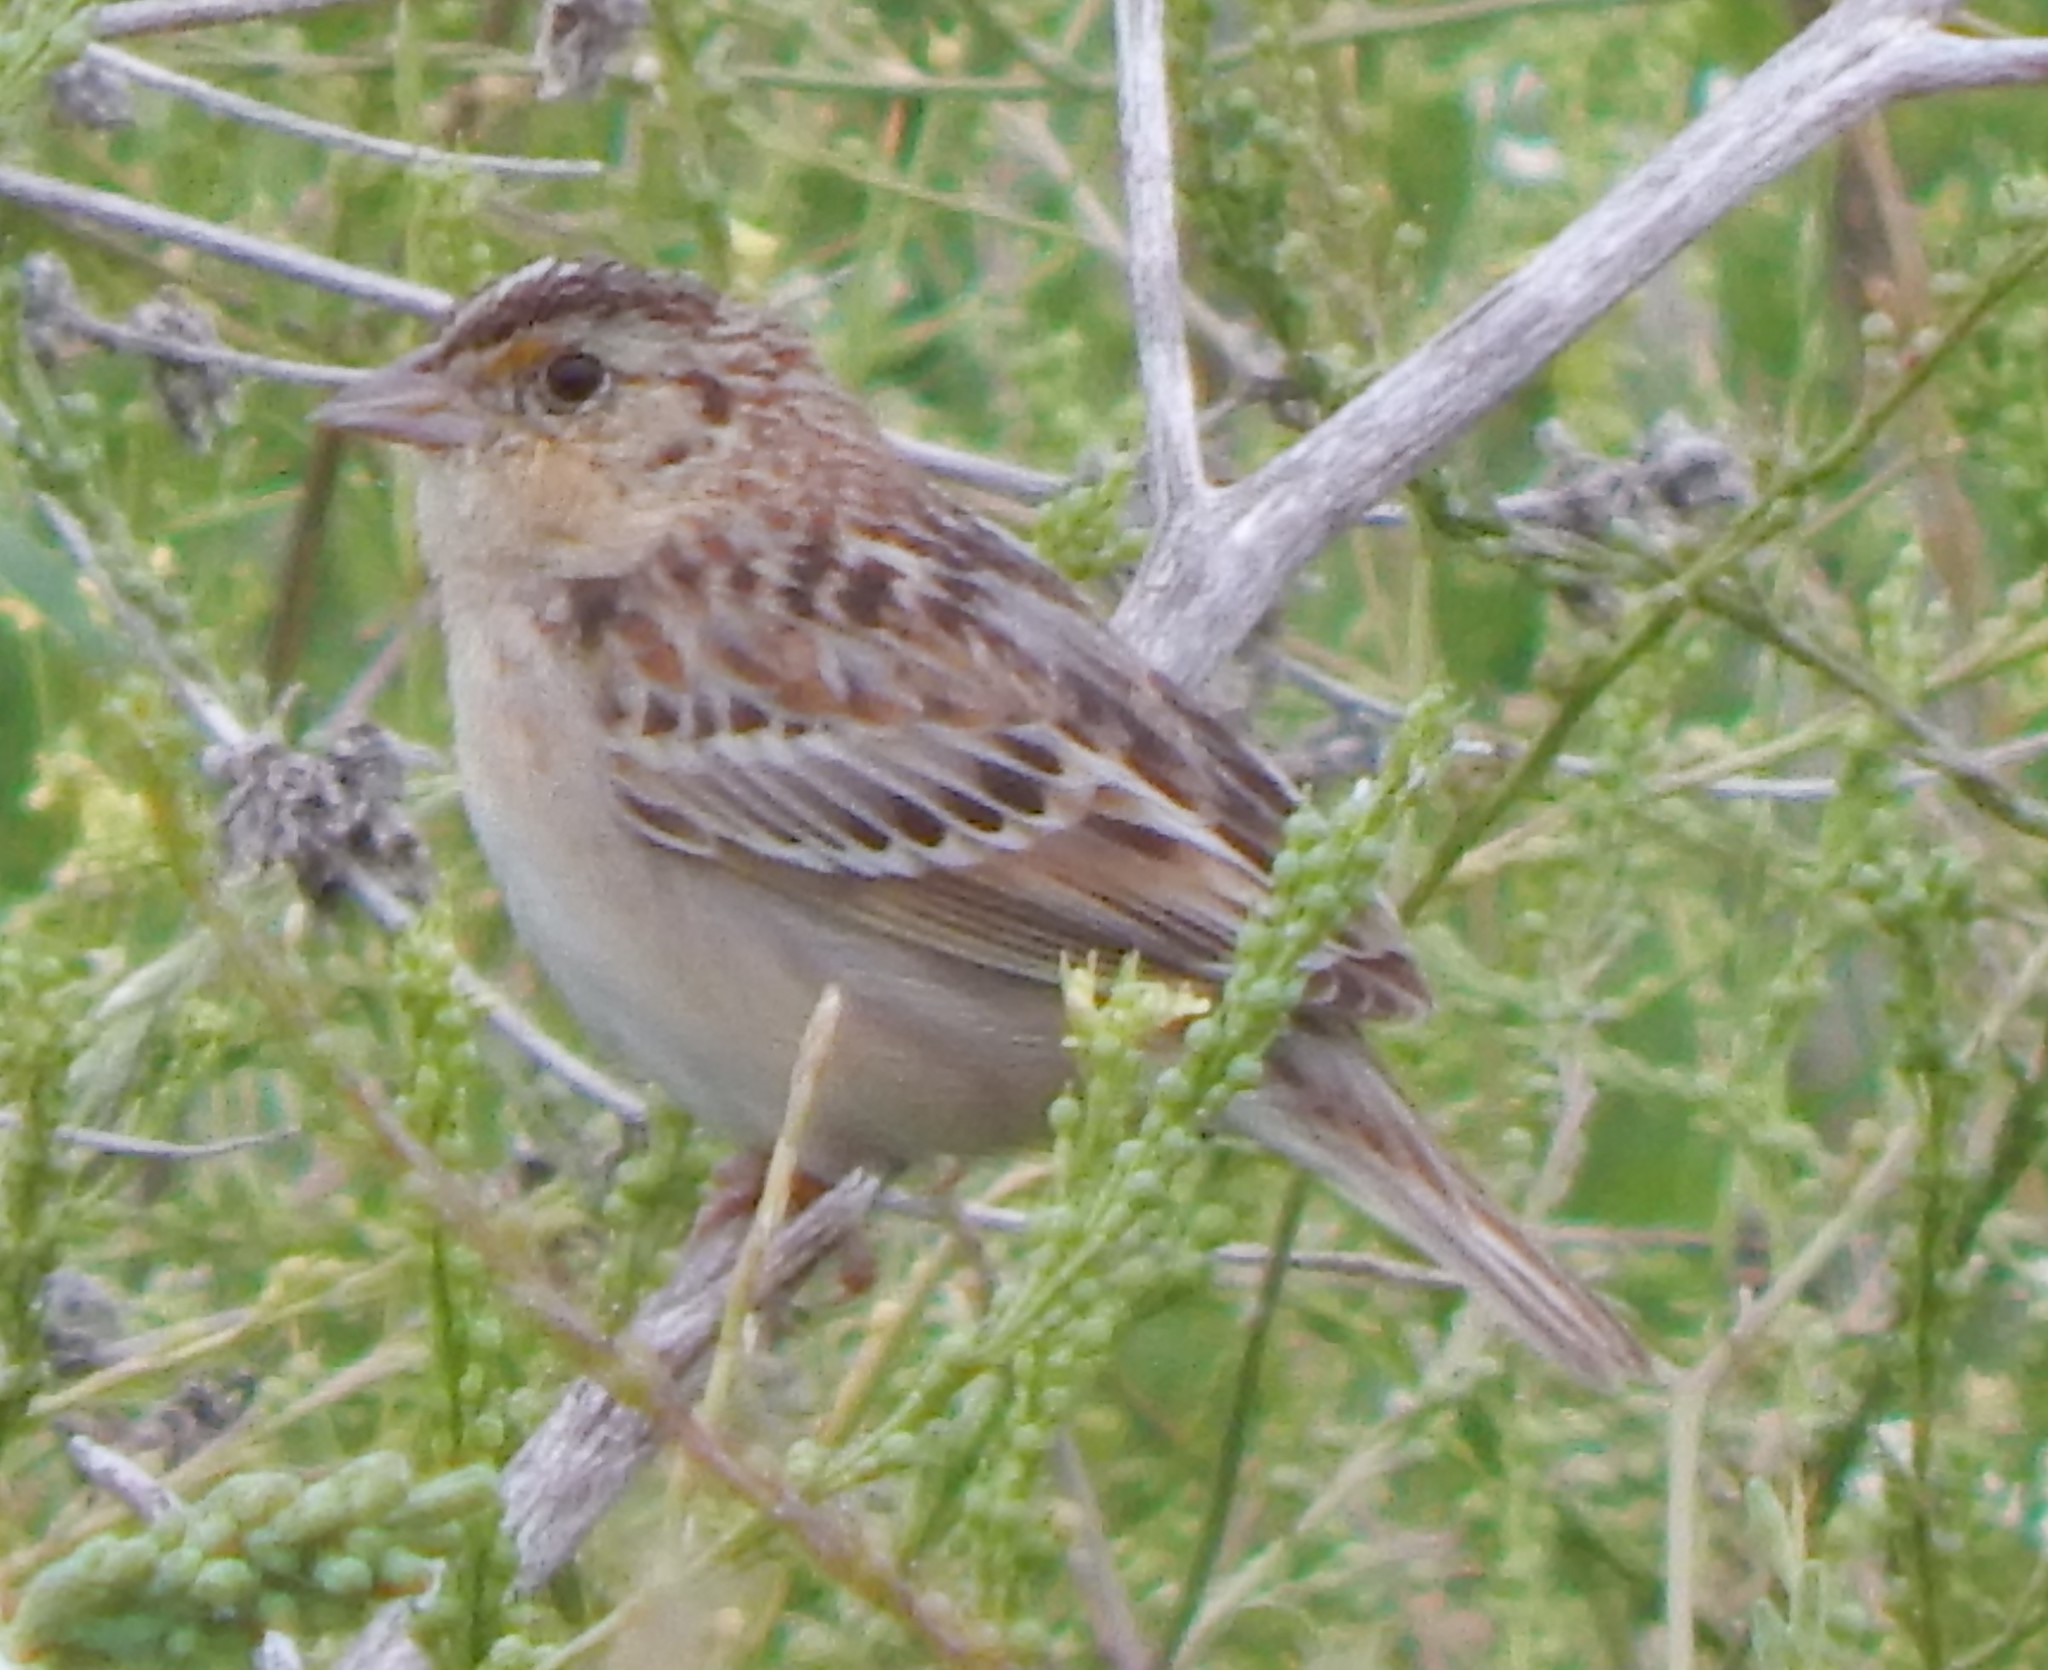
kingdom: Animalia
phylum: Chordata
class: Aves
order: Passeriformes
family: Passerellidae
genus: Ammodramus
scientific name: Ammodramus savannarum
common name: Grasshopper sparrow
